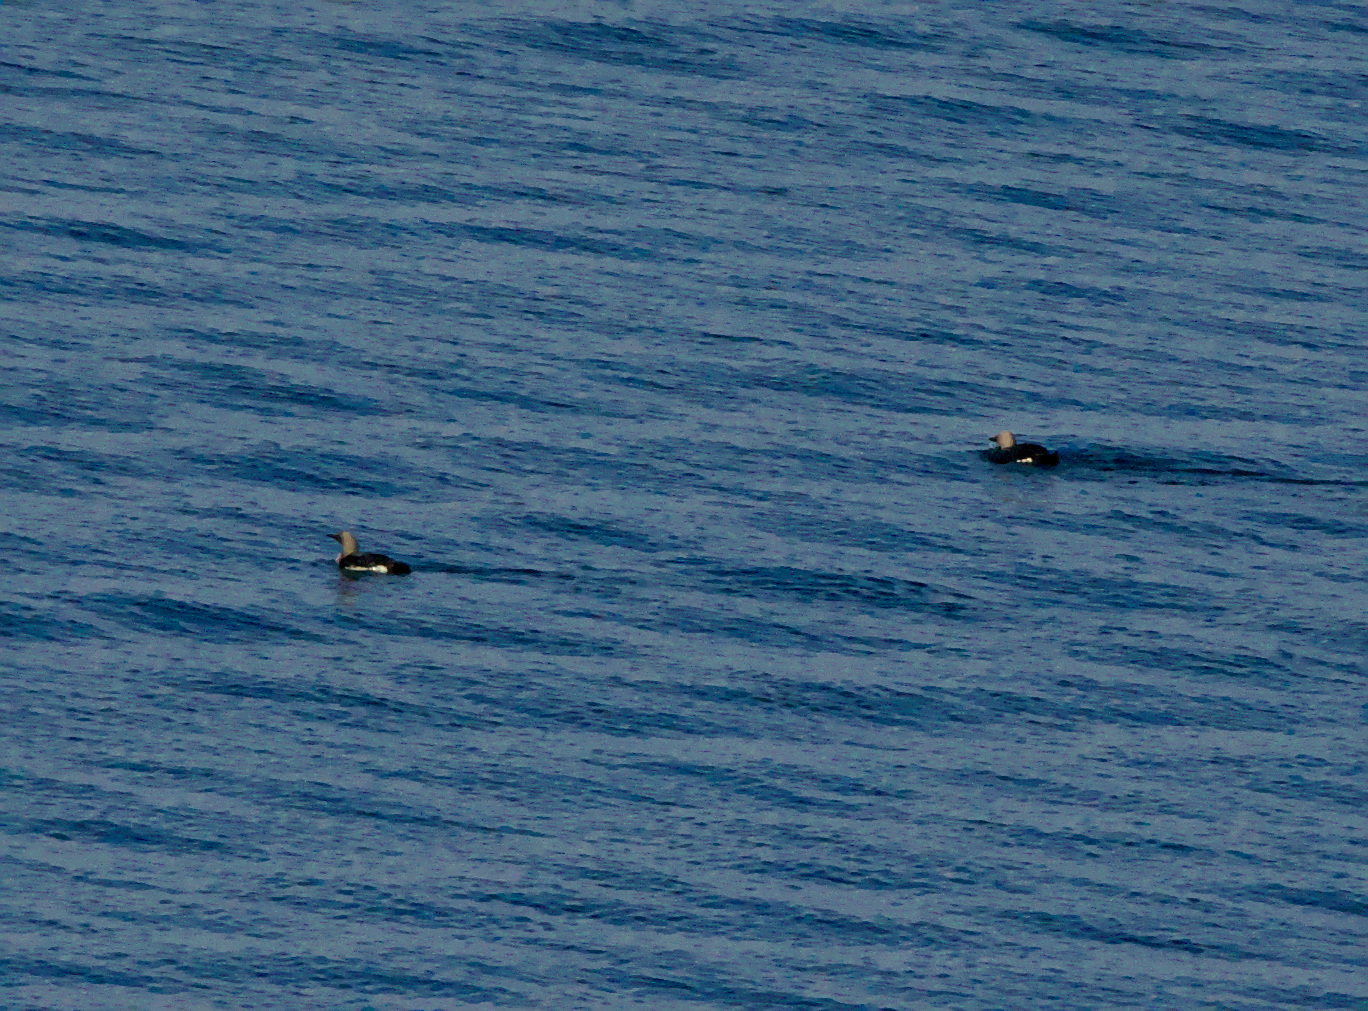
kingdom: Animalia
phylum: Chordata
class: Aves
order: Gaviiformes
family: Gaviidae
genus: Gavia
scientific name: Gavia arctica
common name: Black-throated loon
